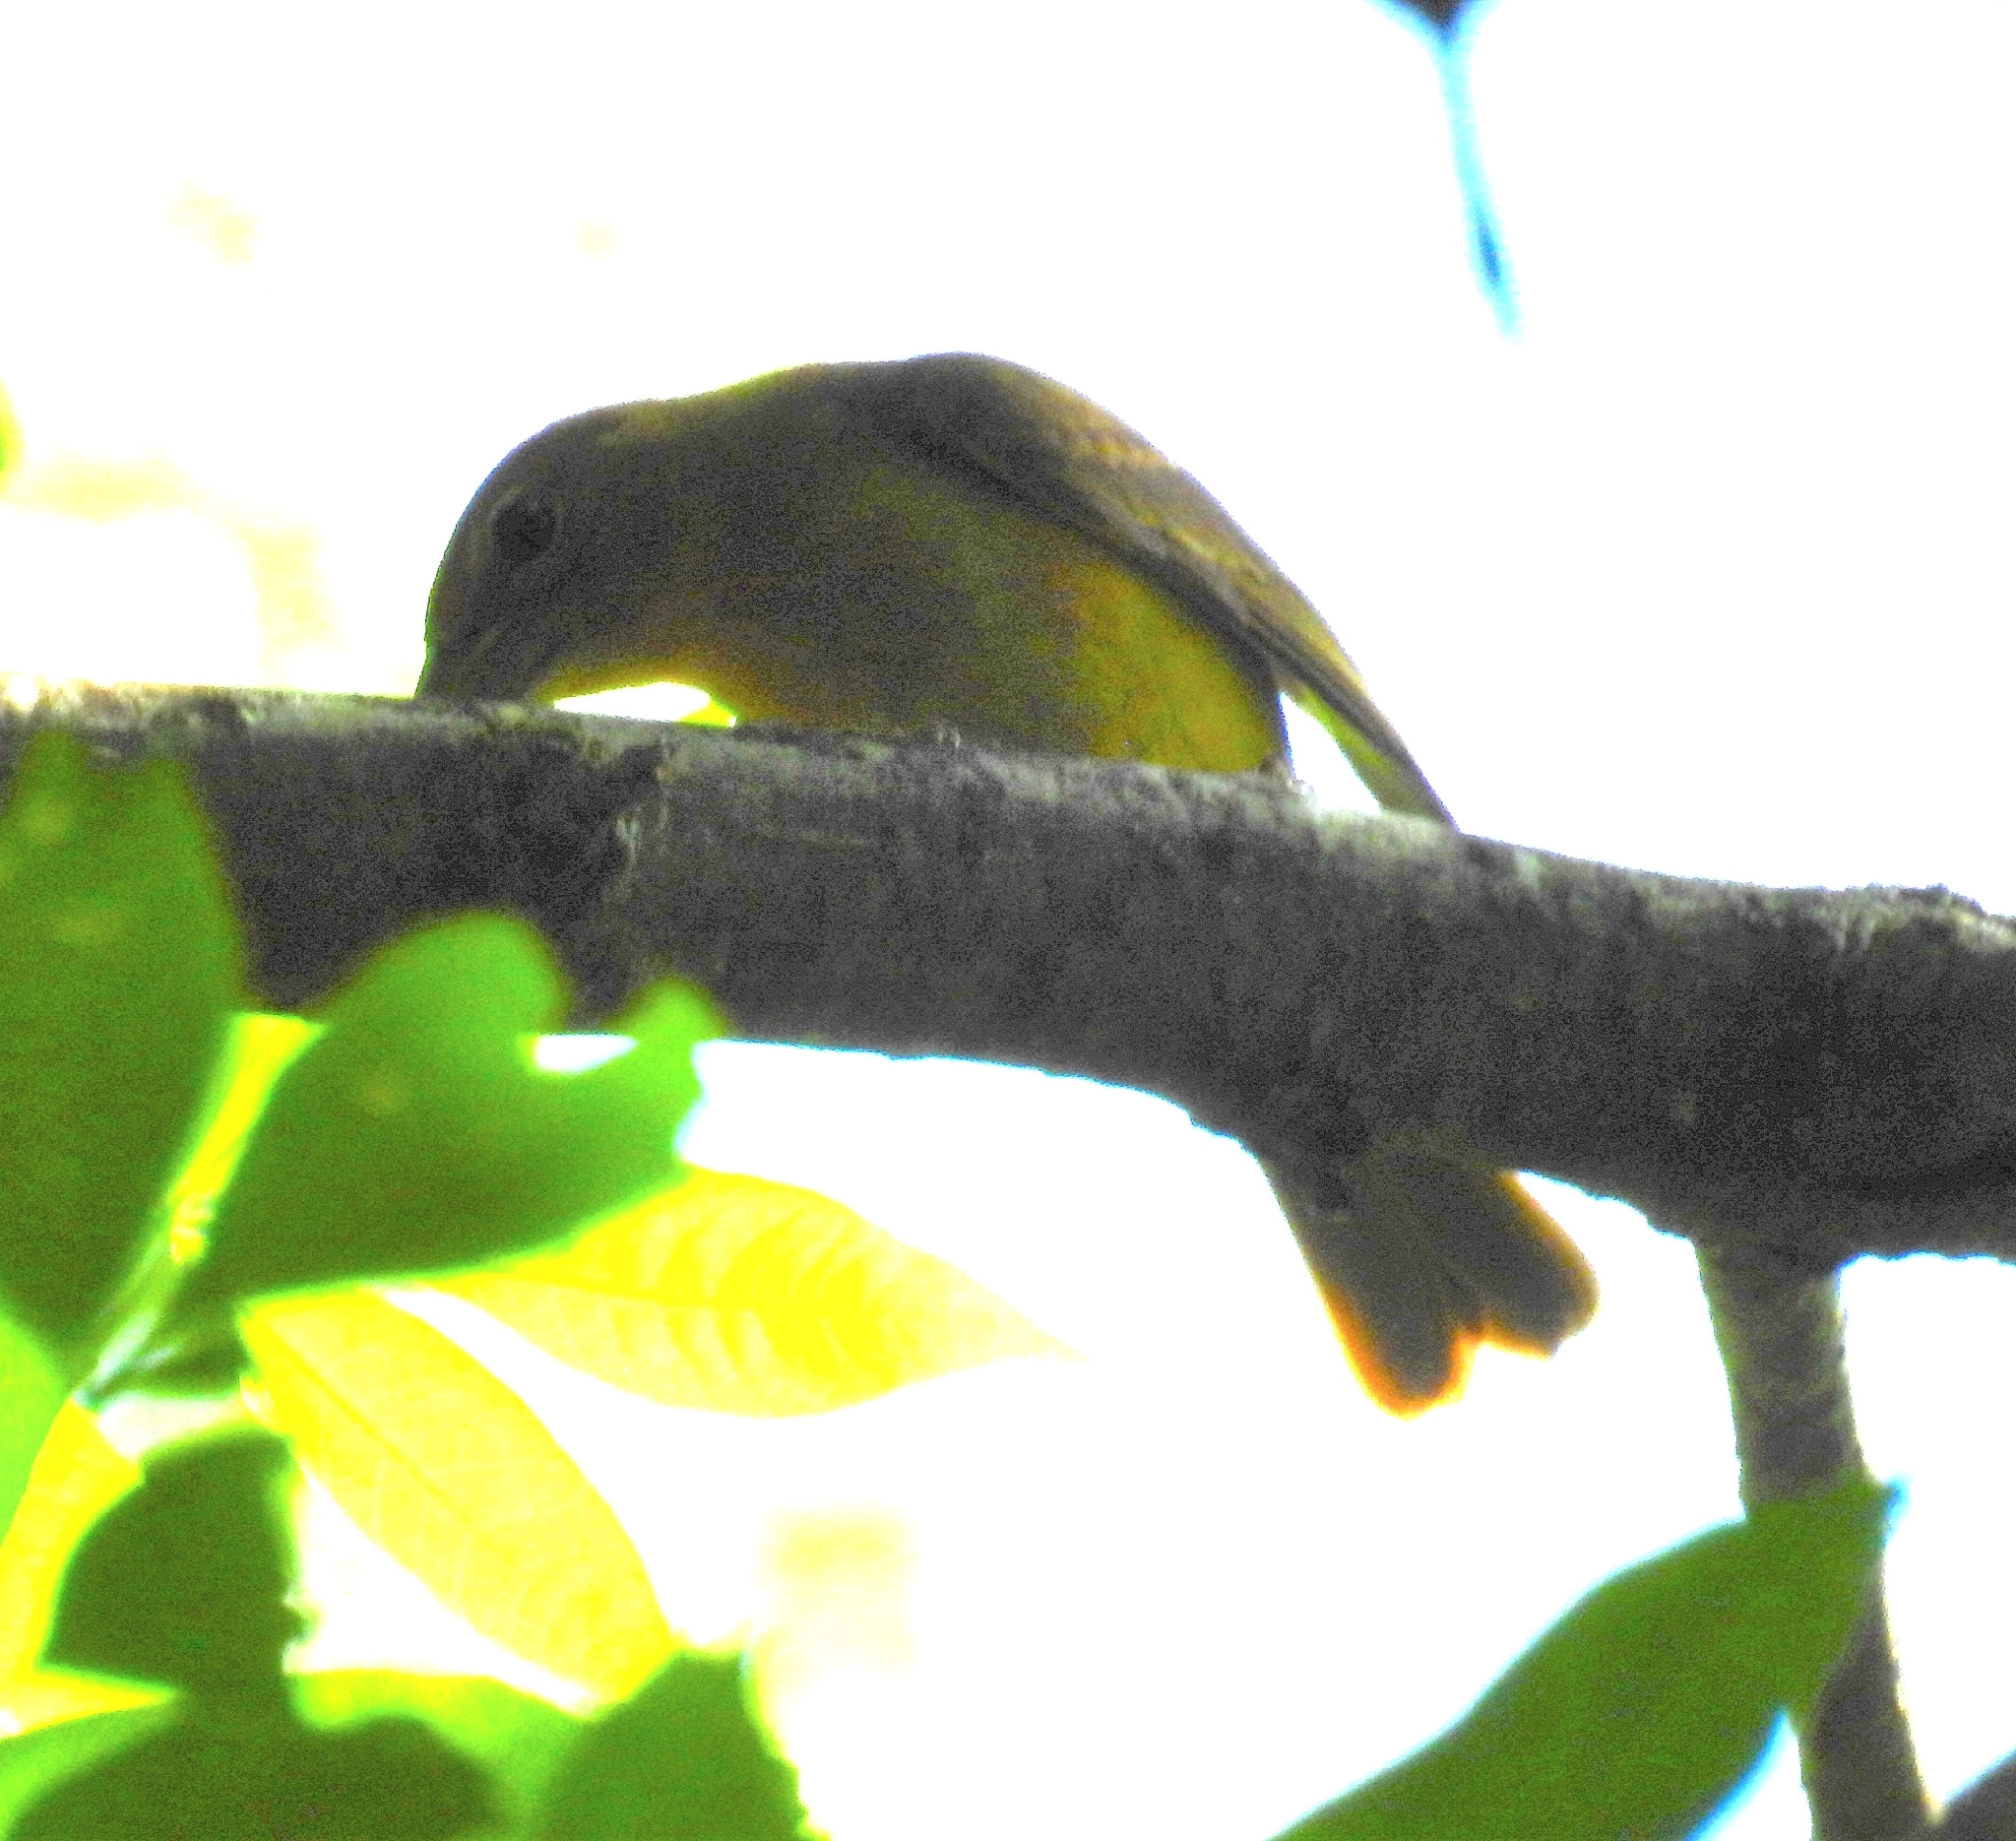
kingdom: Animalia
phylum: Chordata
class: Aves
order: Passeriformes
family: Cardinalidae
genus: Piranga
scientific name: Piranga rubra
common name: Summer tanager
